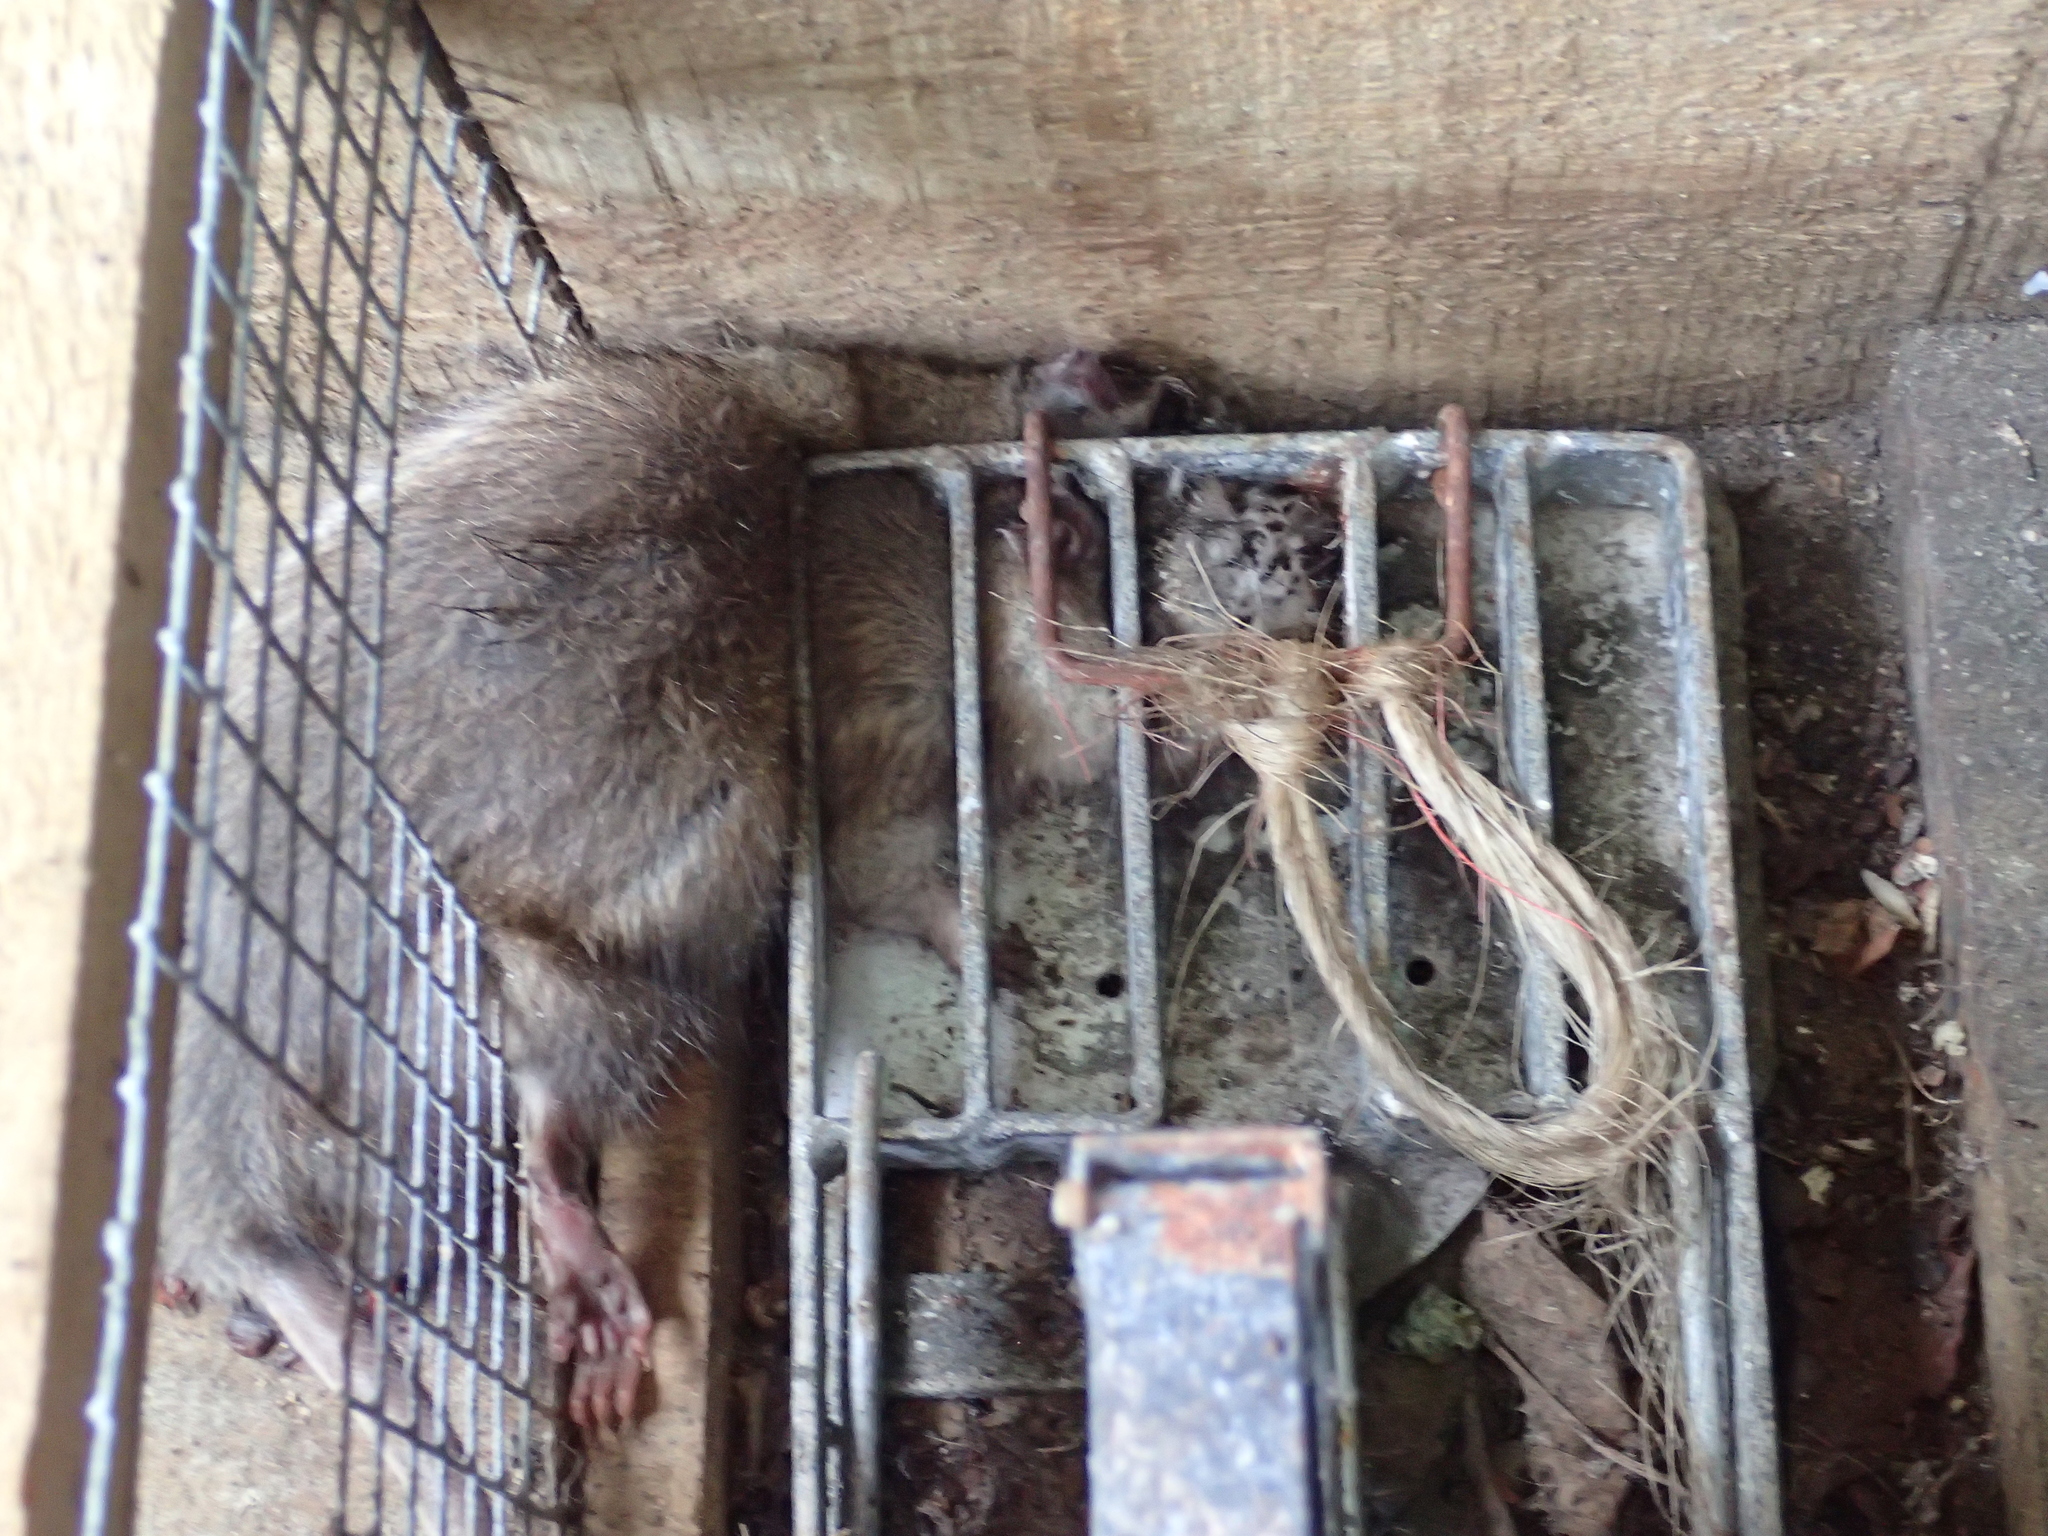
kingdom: Animalia
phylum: Chordata
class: Mammalia
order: Rodentia
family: Muridae
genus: Rattus
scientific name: Rattus norvegicus
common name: Brown rat
